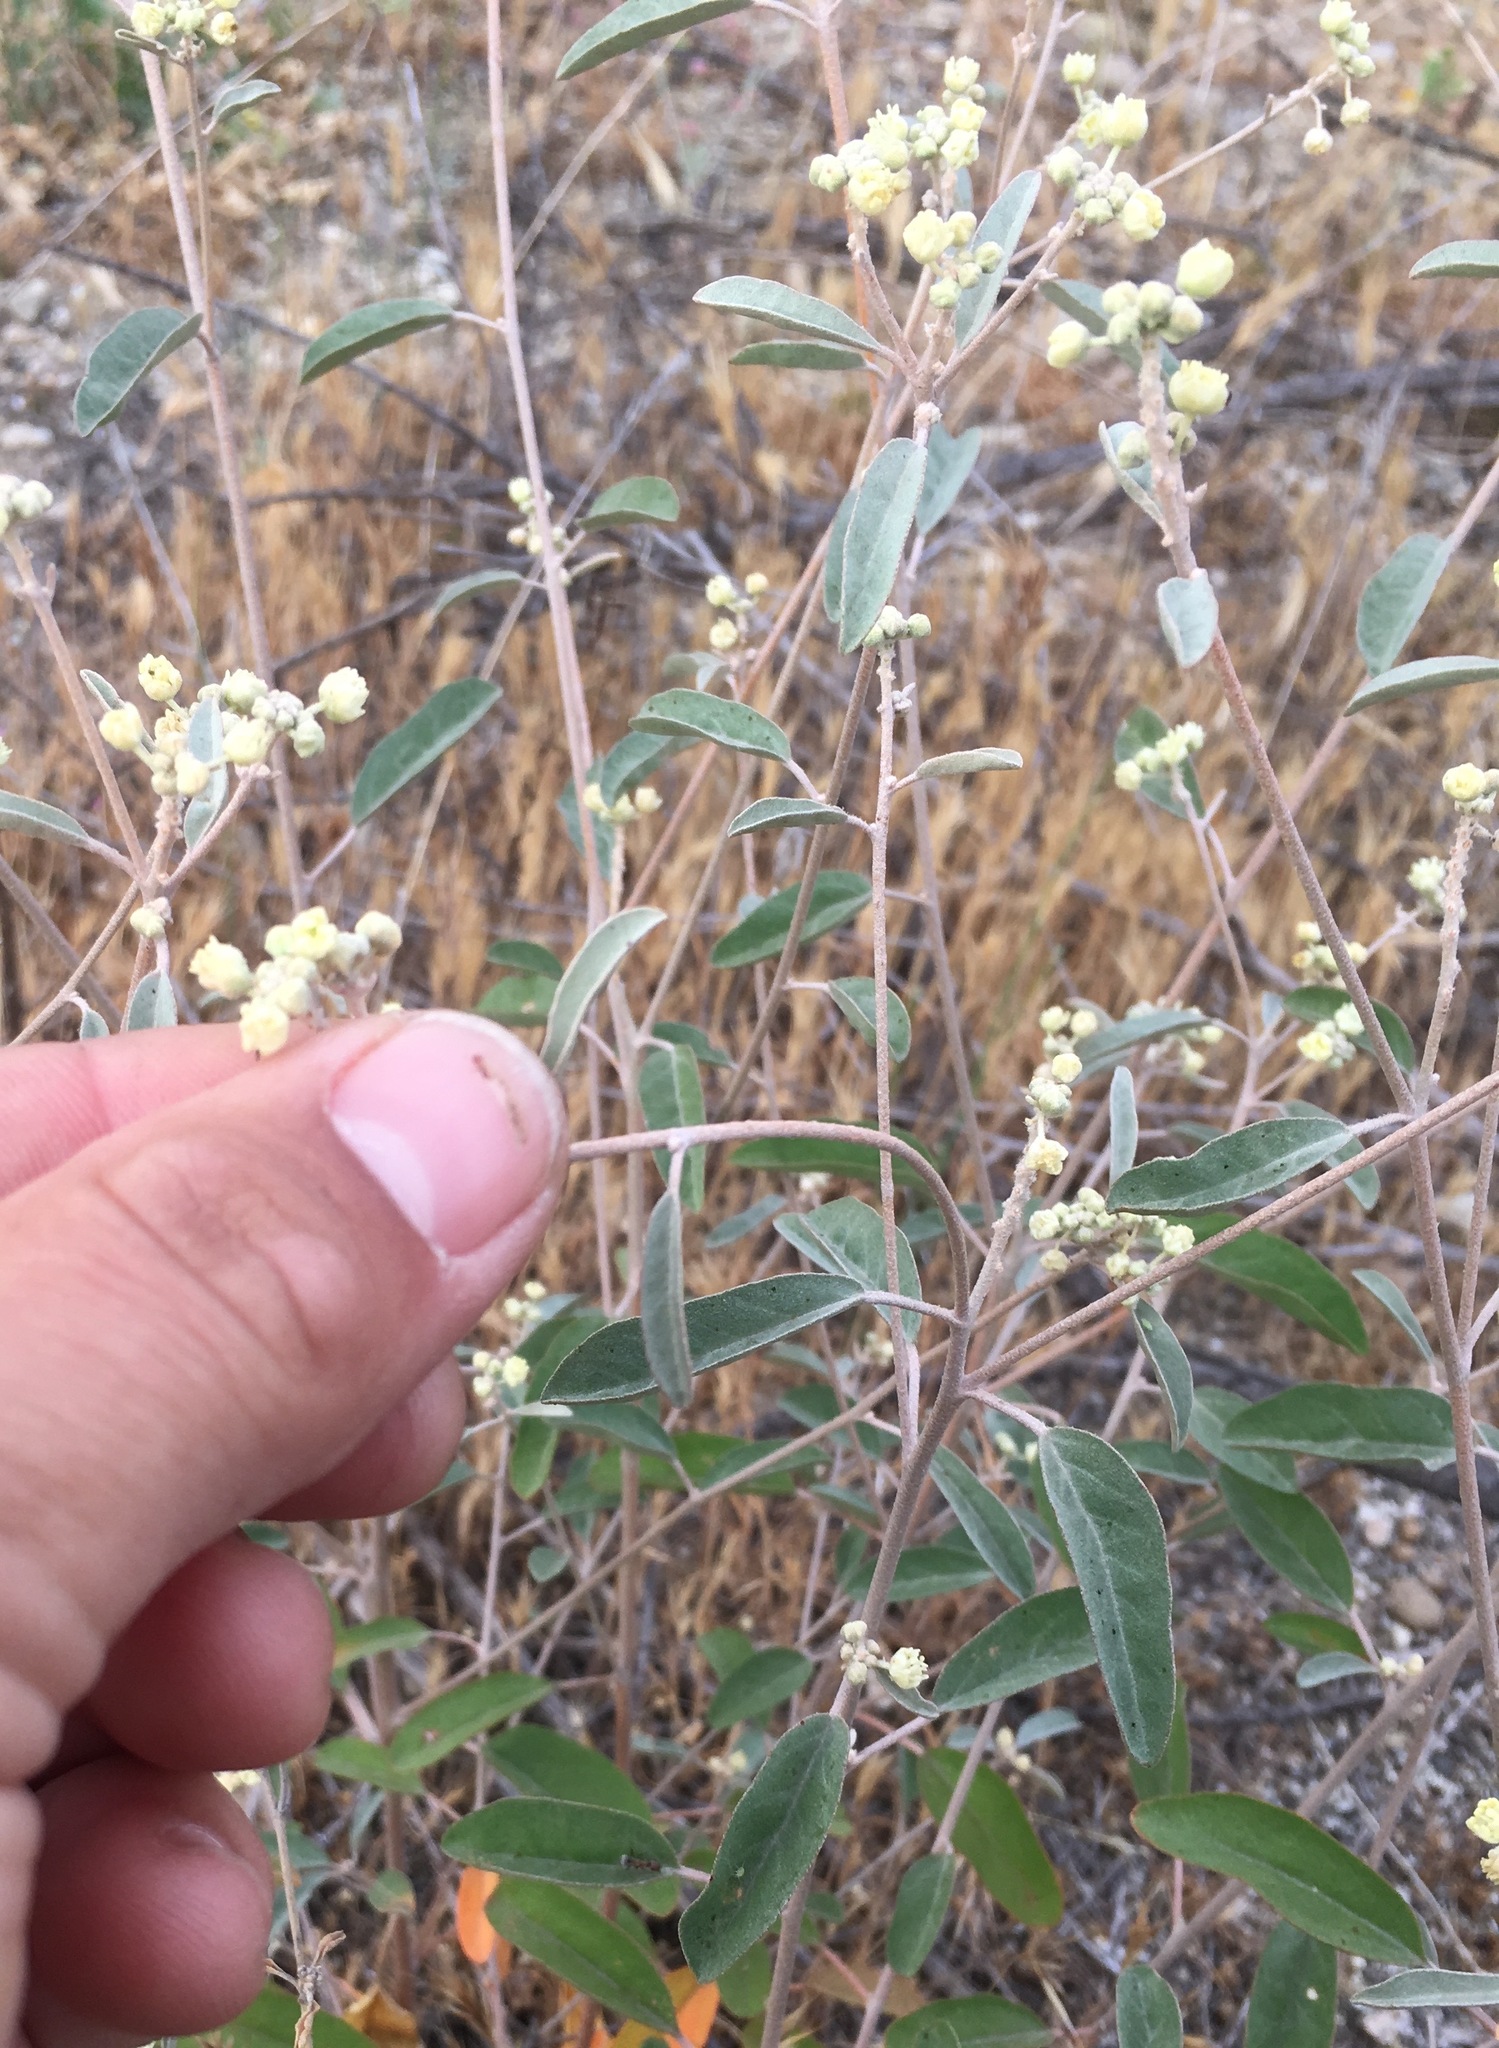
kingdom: Plantae
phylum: Tracheophyta
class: Magnoliopsida
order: Malpighiales
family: Euphorbiaceae
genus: Croton
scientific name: Croton californicus
